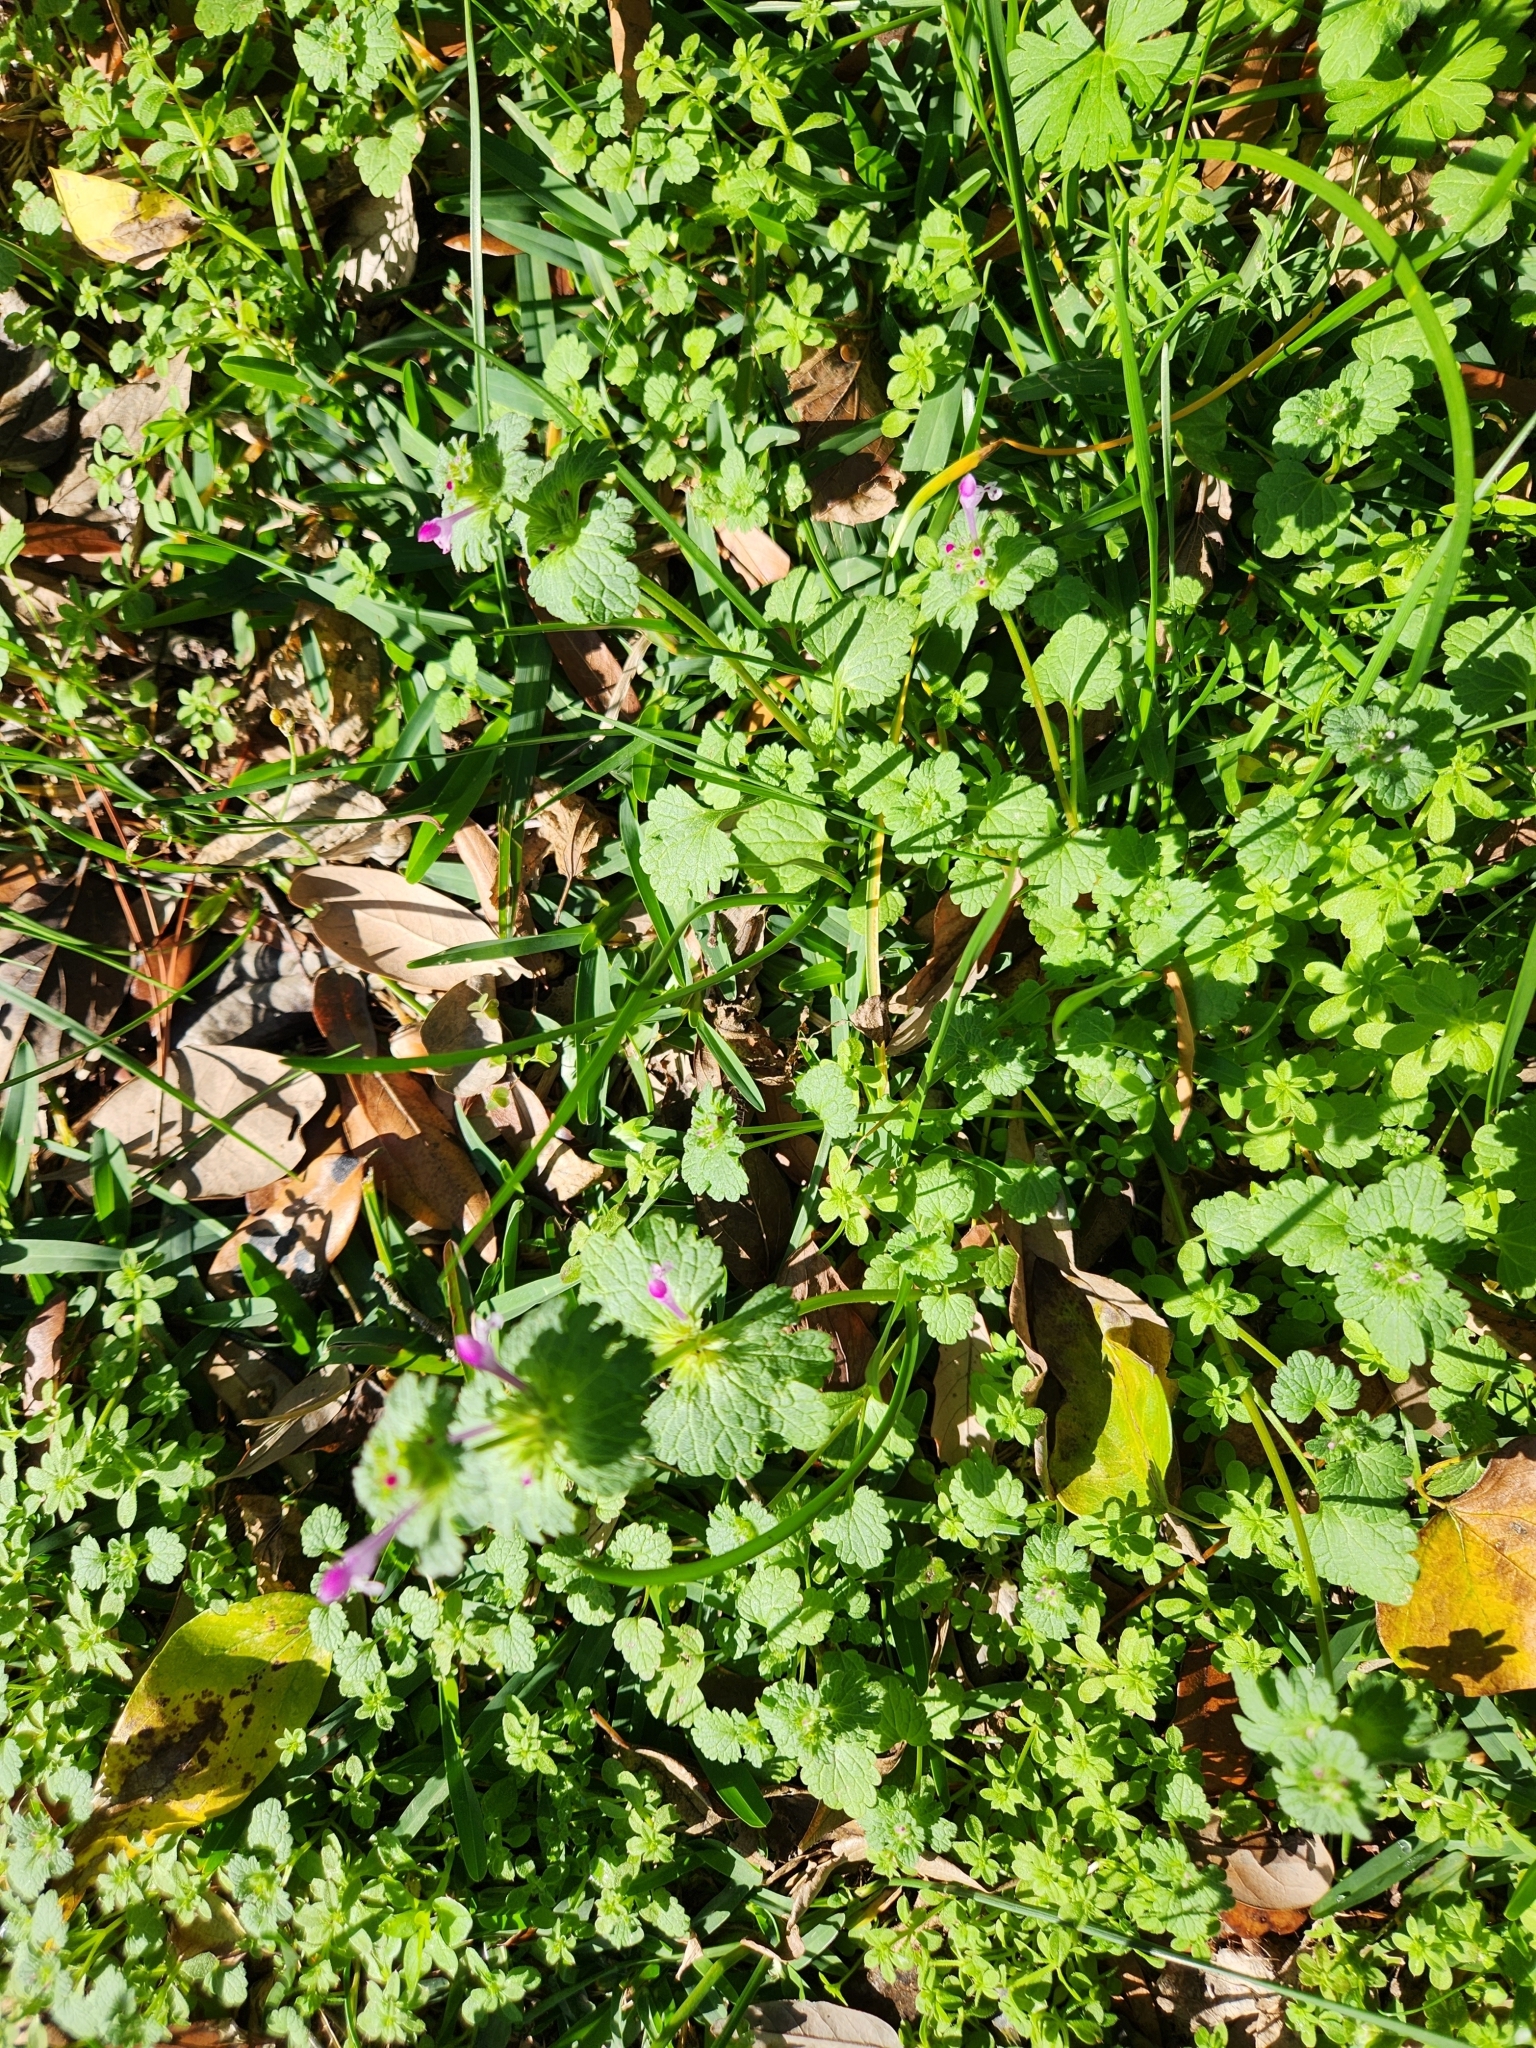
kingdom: Plantae
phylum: Tracheophyta
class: Magnoliopsida
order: Lamiales
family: Lamiaceae
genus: Lamium
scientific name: Lamium amplexicaule
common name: Henbit dead-nettle
